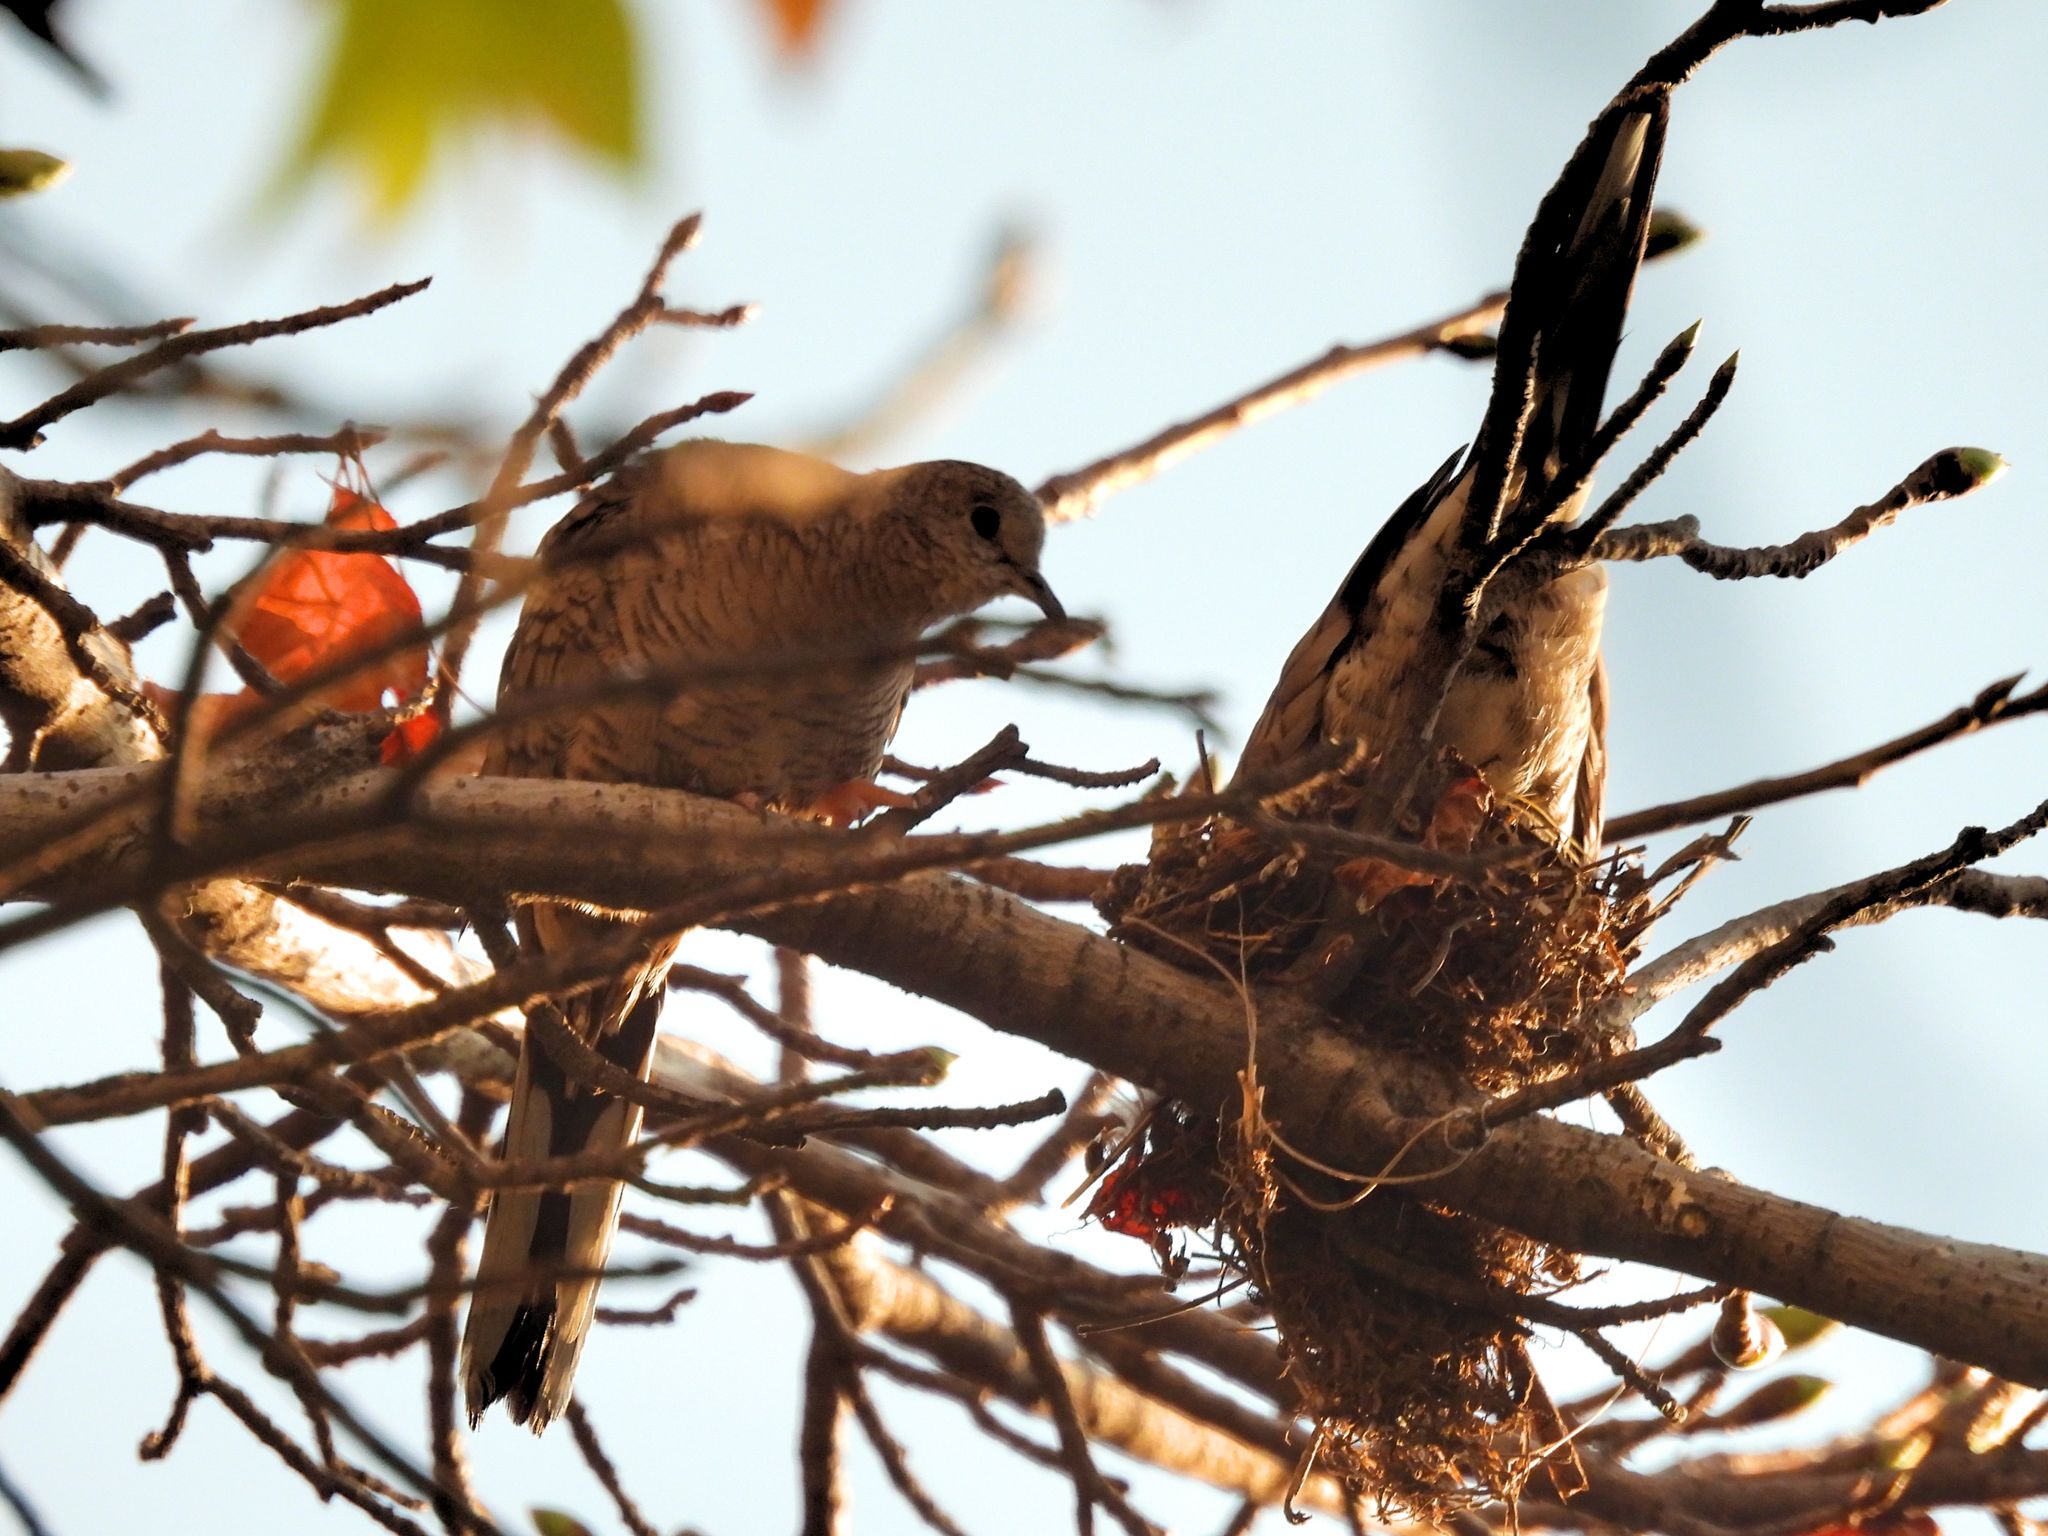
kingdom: Animalia
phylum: Chordata
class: Aves
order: Columbiformes
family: Columbidae
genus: Columbina
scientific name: Columbina inca
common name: Inca dove
